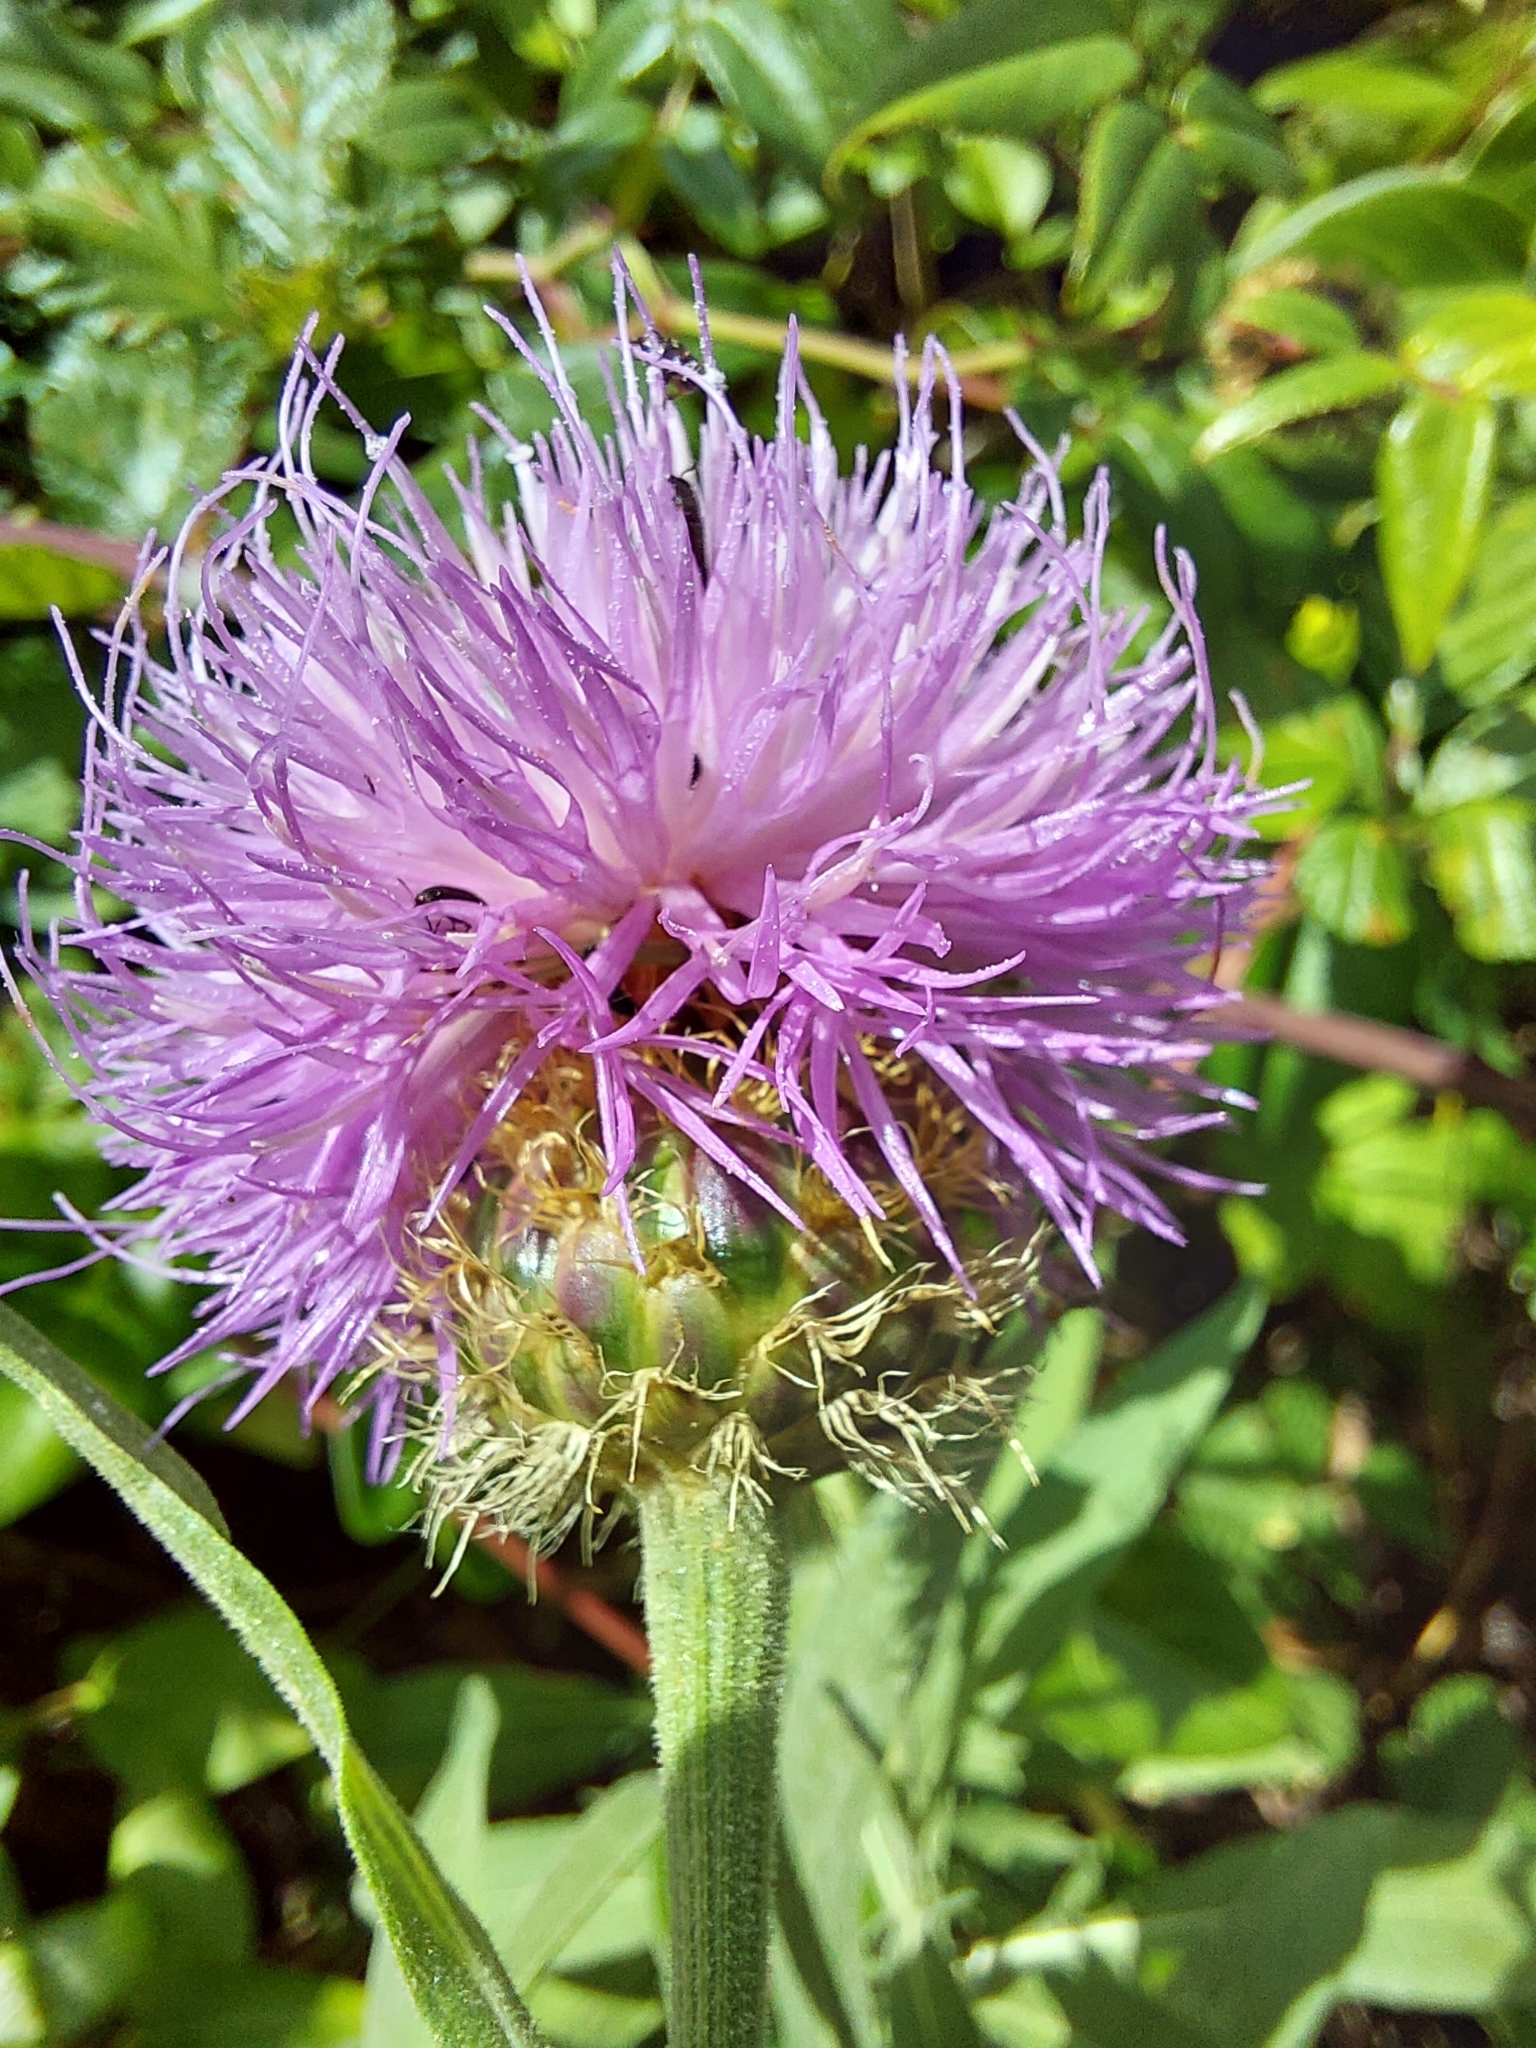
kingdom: Plantae
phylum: Tracheophyta
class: Magnoliopsida
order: Asterales
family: Asteraceae
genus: Cheirolophus
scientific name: Cheirolophus sempervirens
